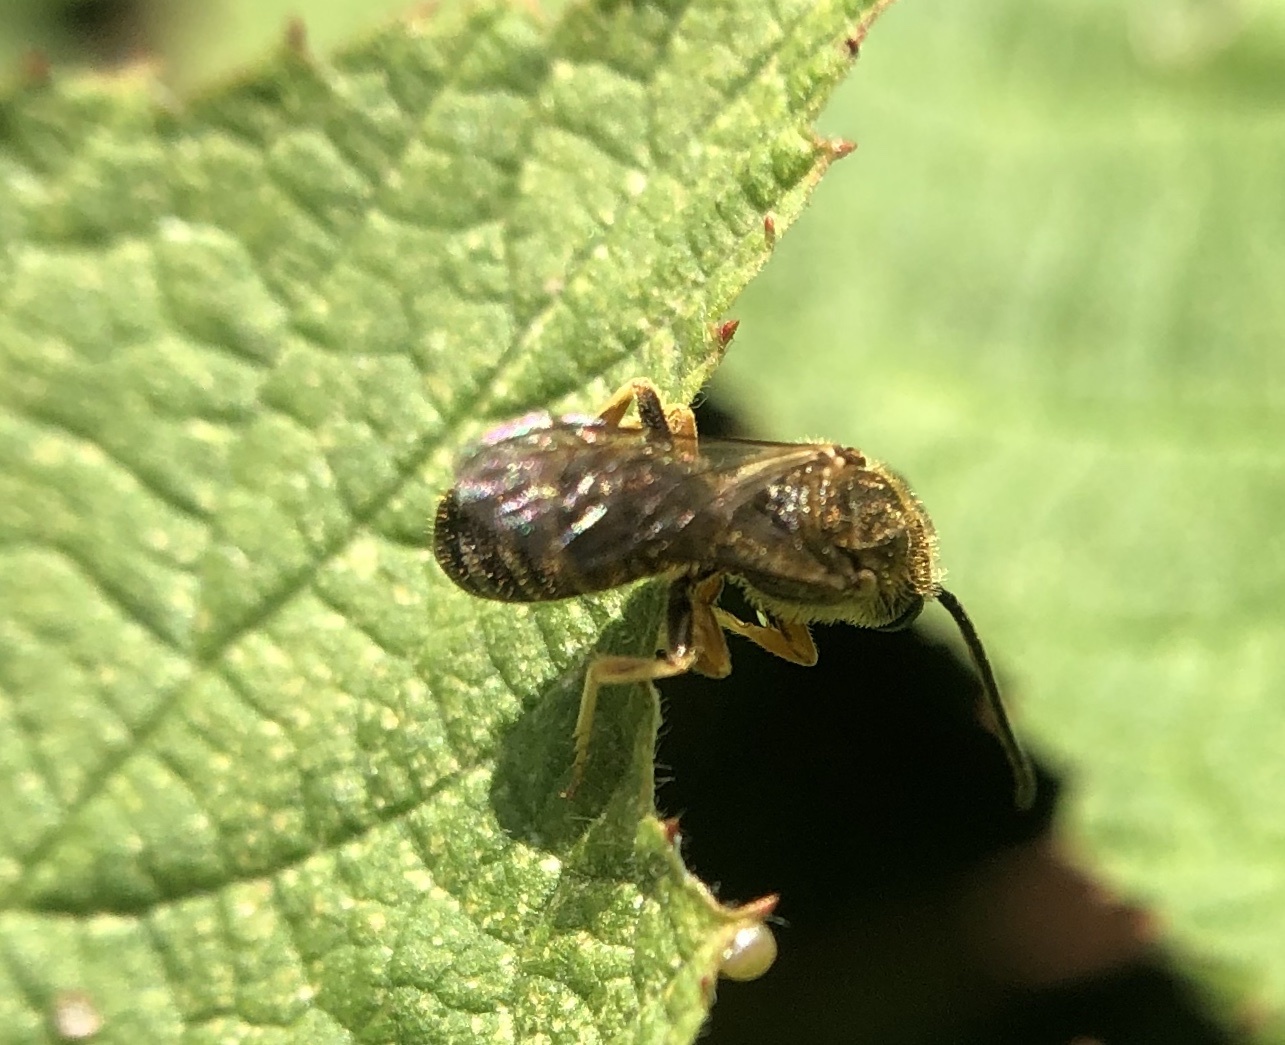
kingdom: Animalia
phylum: Arthropoda
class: Insecta
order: Hymenoptera
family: Halictidae
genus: Halictus
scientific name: Halictus confusus
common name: Southern bronze furrow bee
